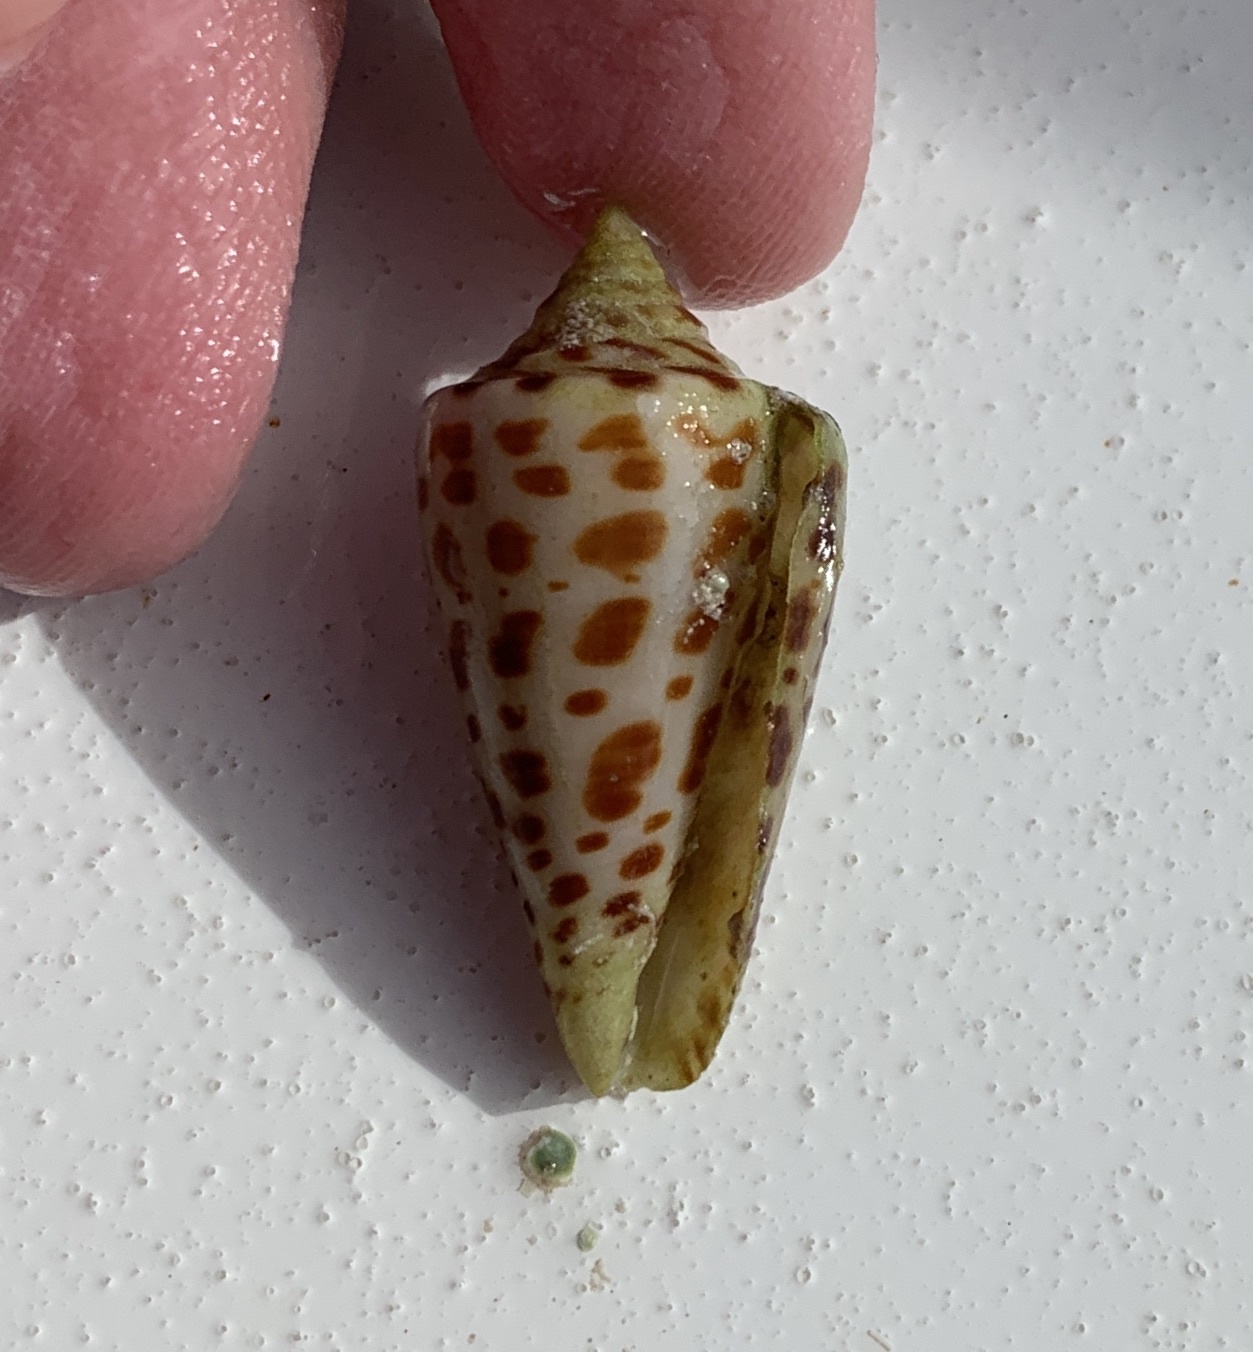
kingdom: Animalia
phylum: Mollusca
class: Gastropoda
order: Neogastropoda
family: Conidae
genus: Conus
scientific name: Conus spurius
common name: Alphabet cone
